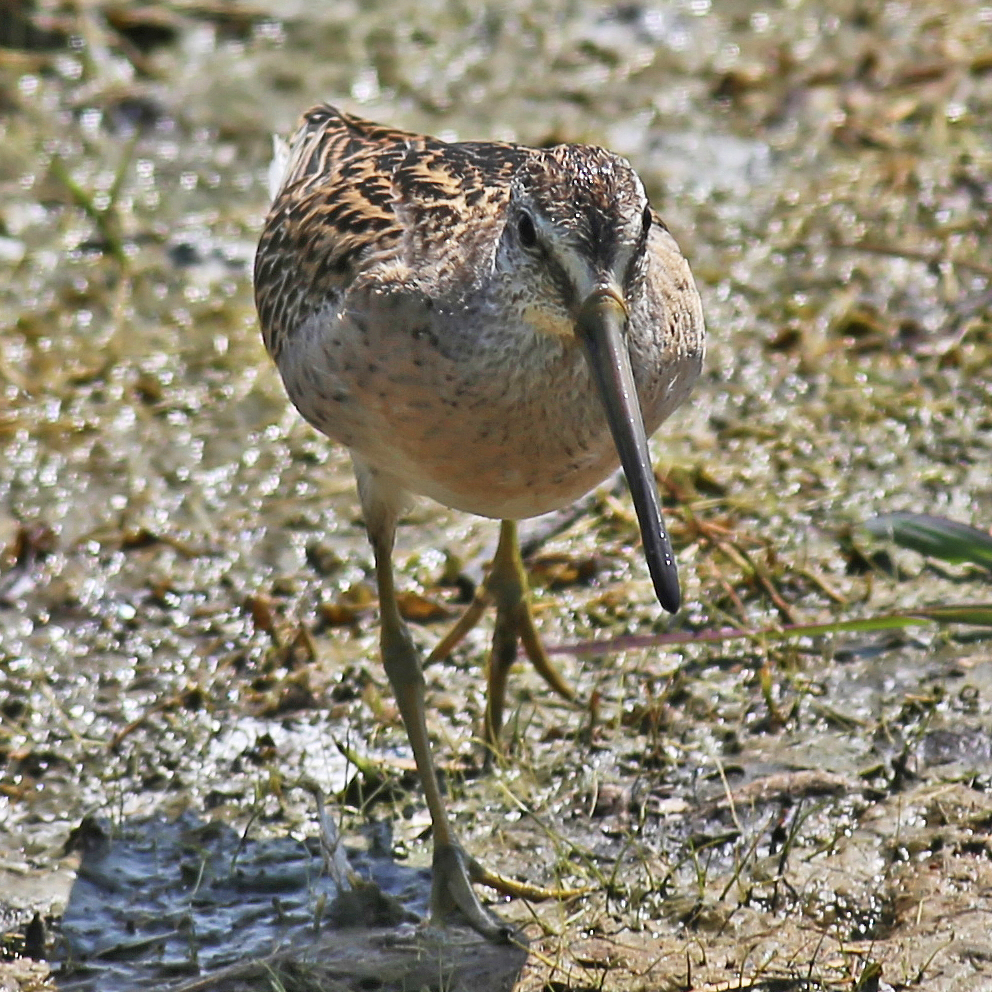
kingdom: Animalia
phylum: Chordata
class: Aves
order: Charadriiformes
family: Scolopacidae
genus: Limnodromus
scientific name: Limnodromus griseus
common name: Short-billed dowitcher
